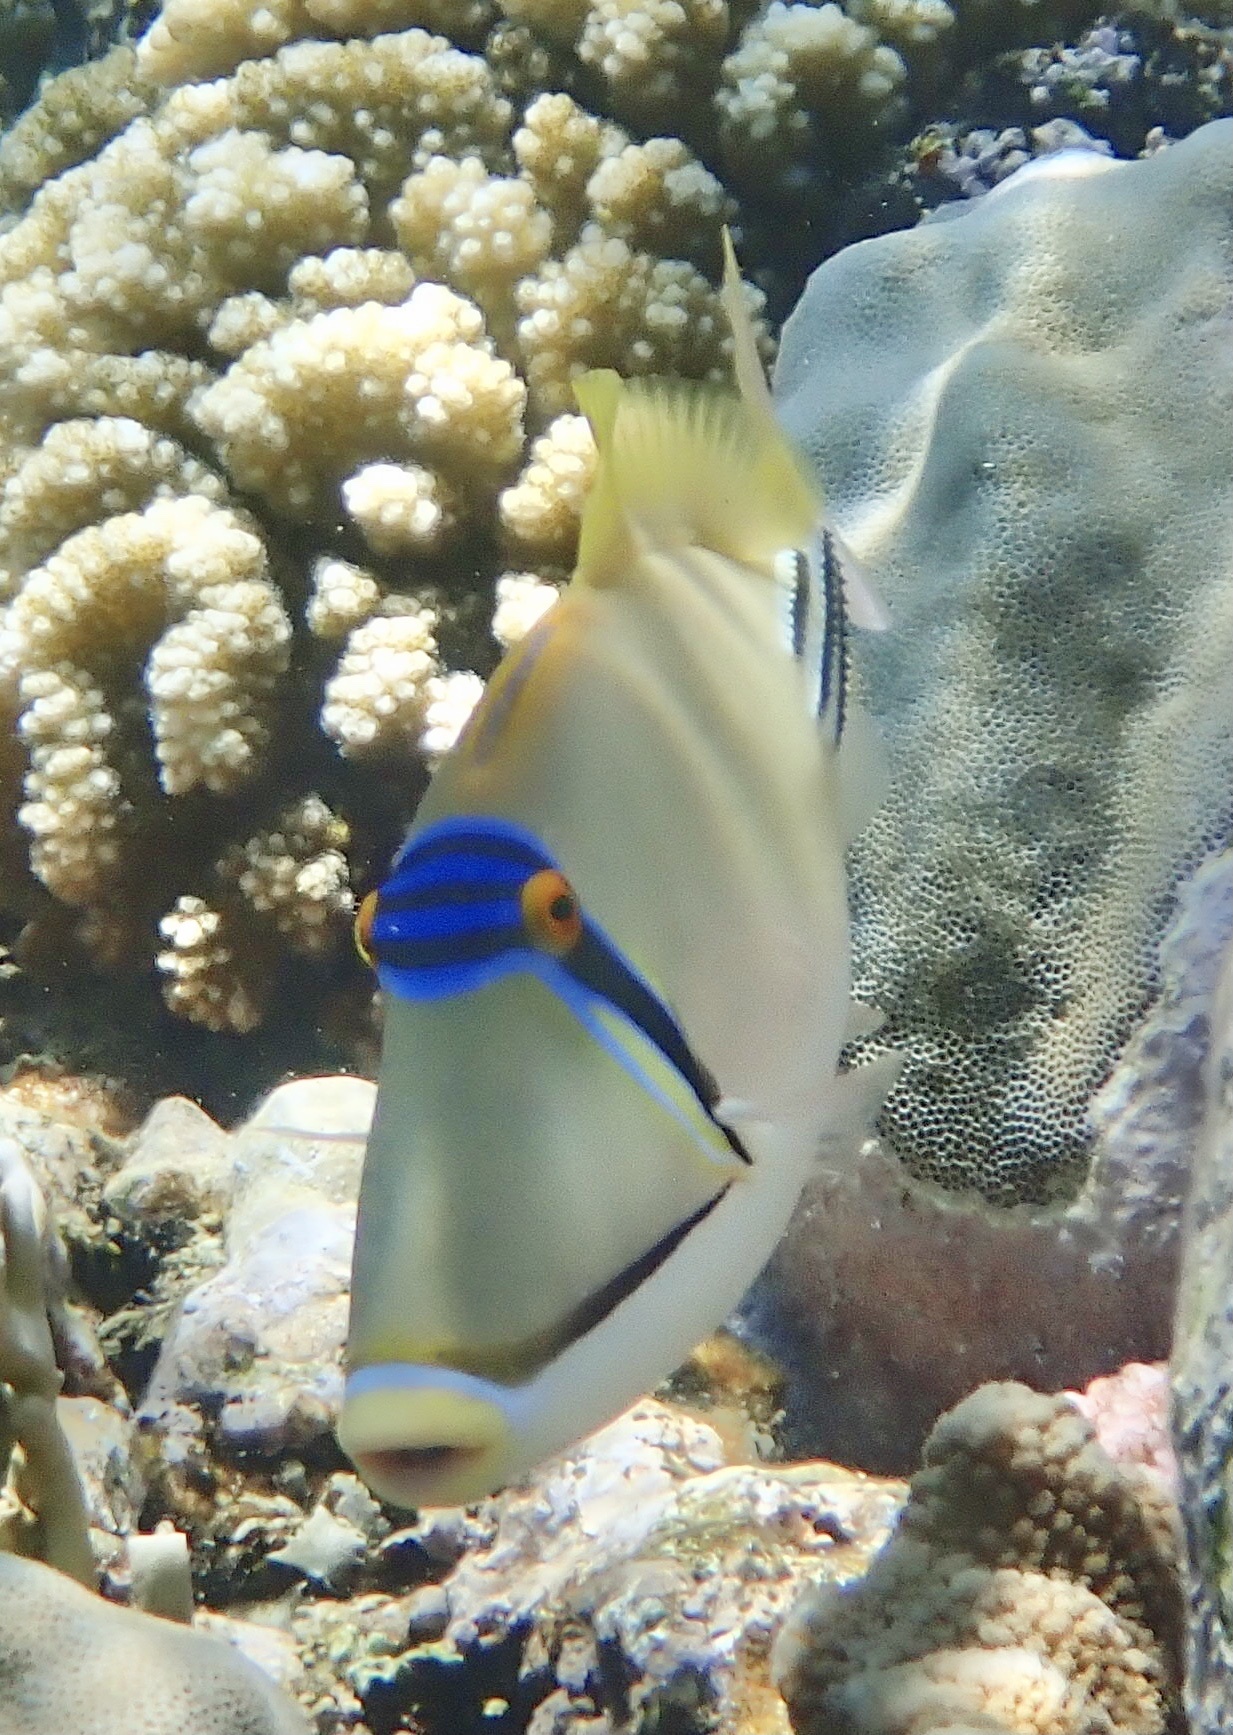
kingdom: Animalia
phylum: Chordata
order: Tetraodontiformes
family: Balistidae
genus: Rhinecanthus
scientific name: Rhinecanthus assasi
